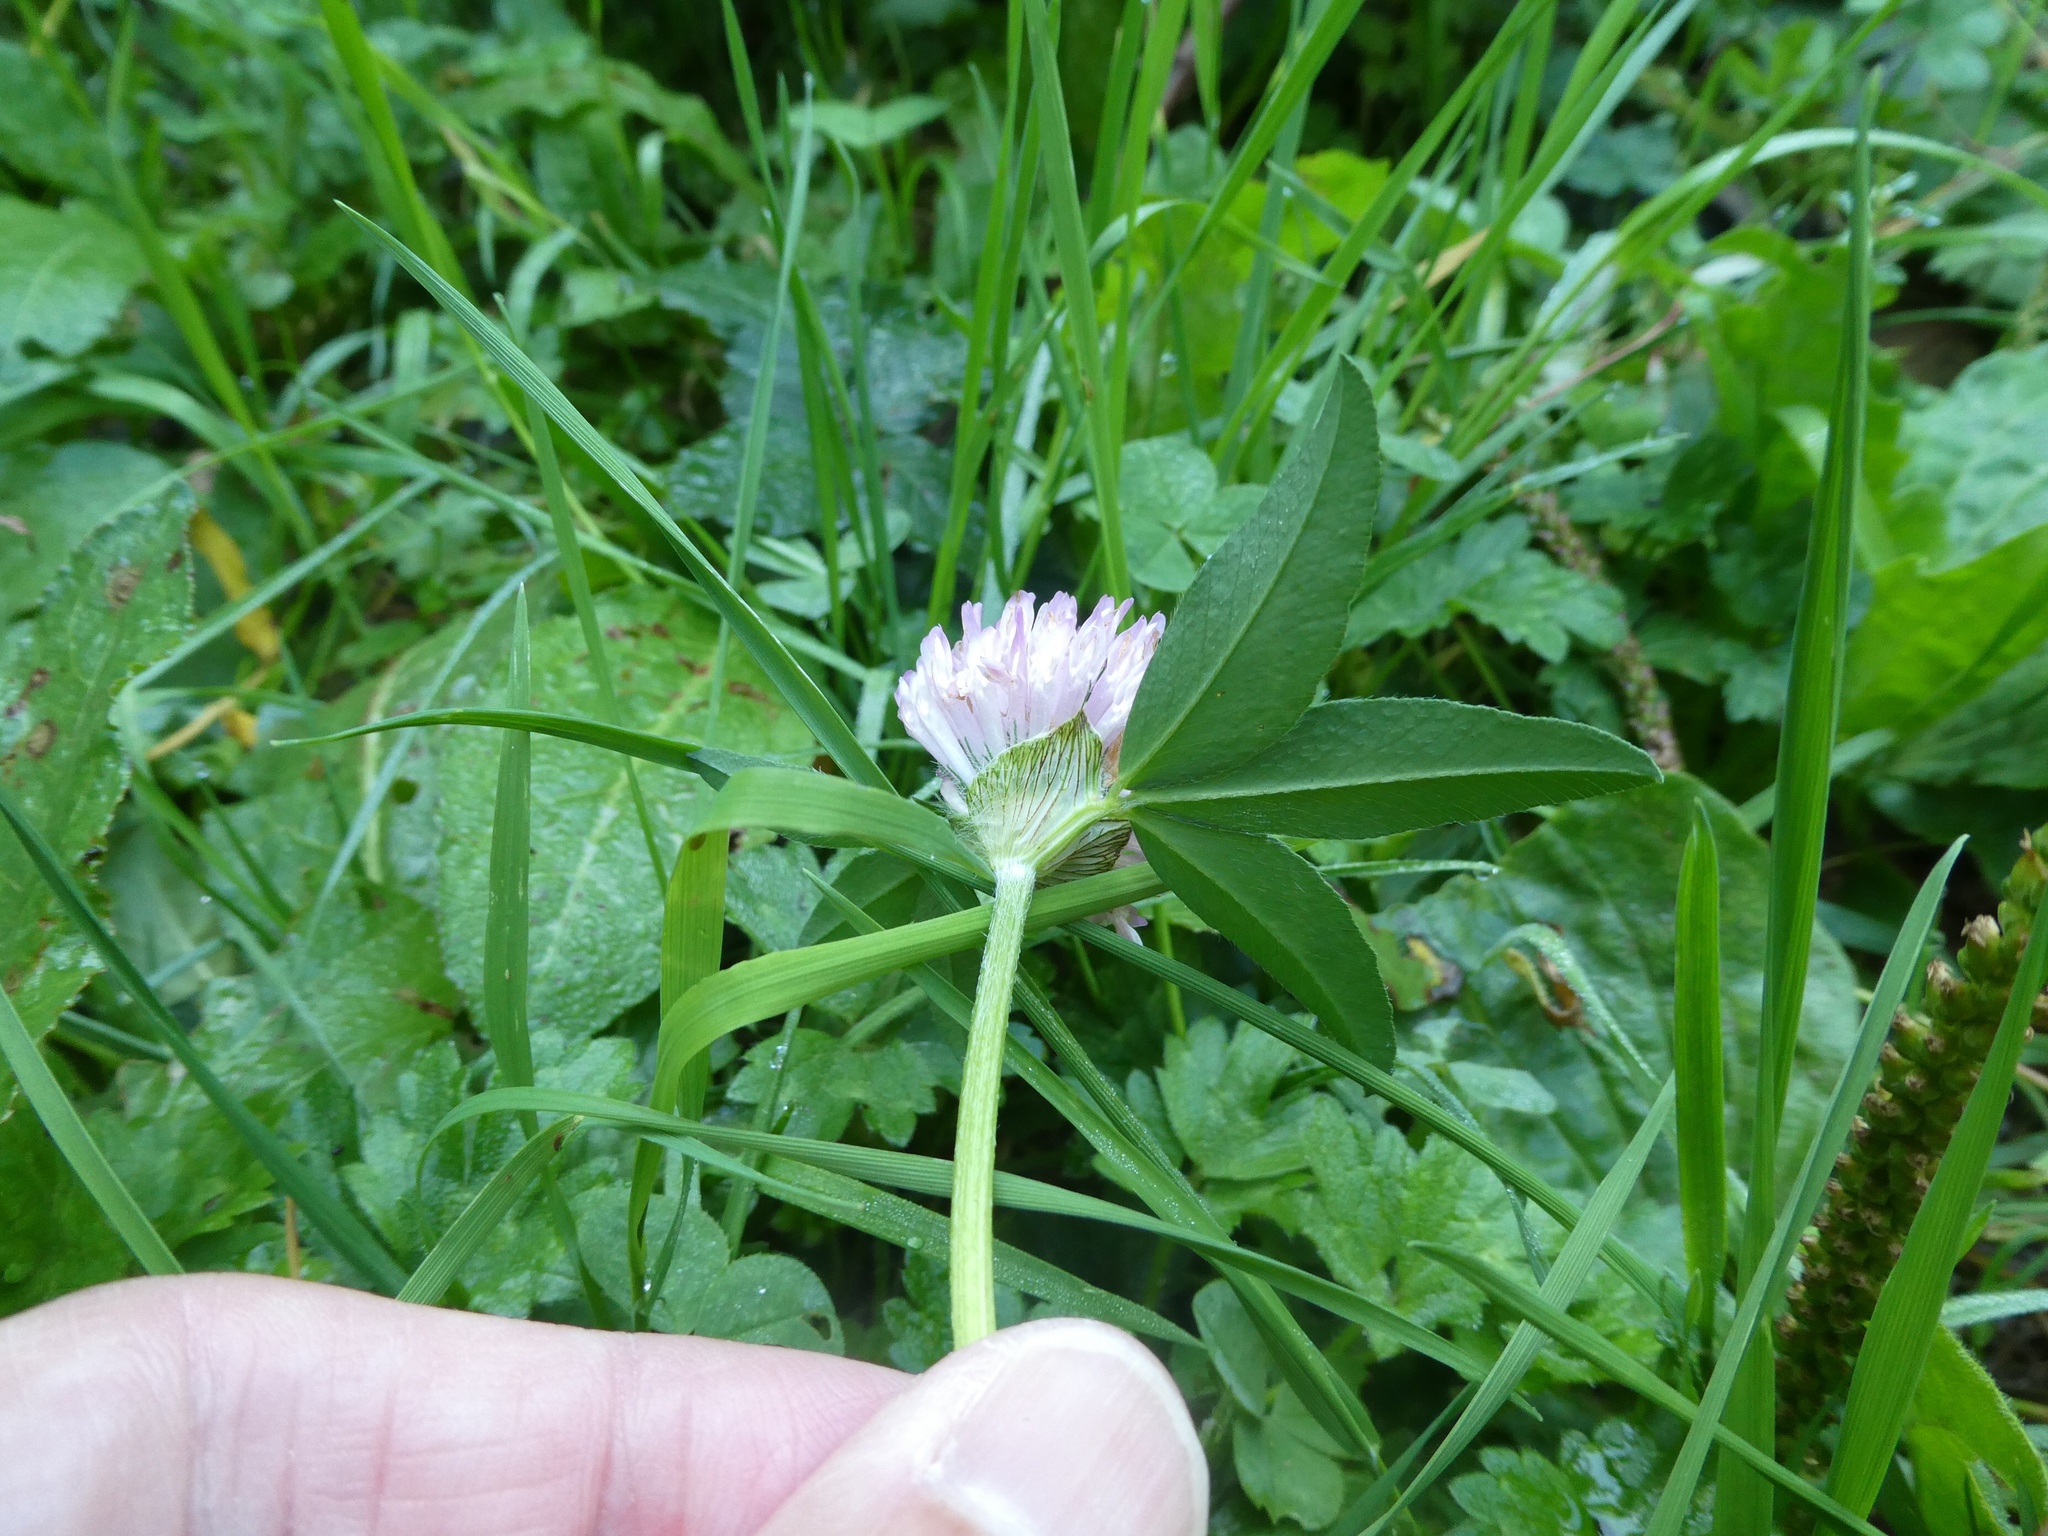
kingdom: Plantae
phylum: Tracheophyta
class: Magnoliopsida
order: Fabales
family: Fabaceae
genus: Trifolium
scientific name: Trifolium pratense
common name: Red clover
